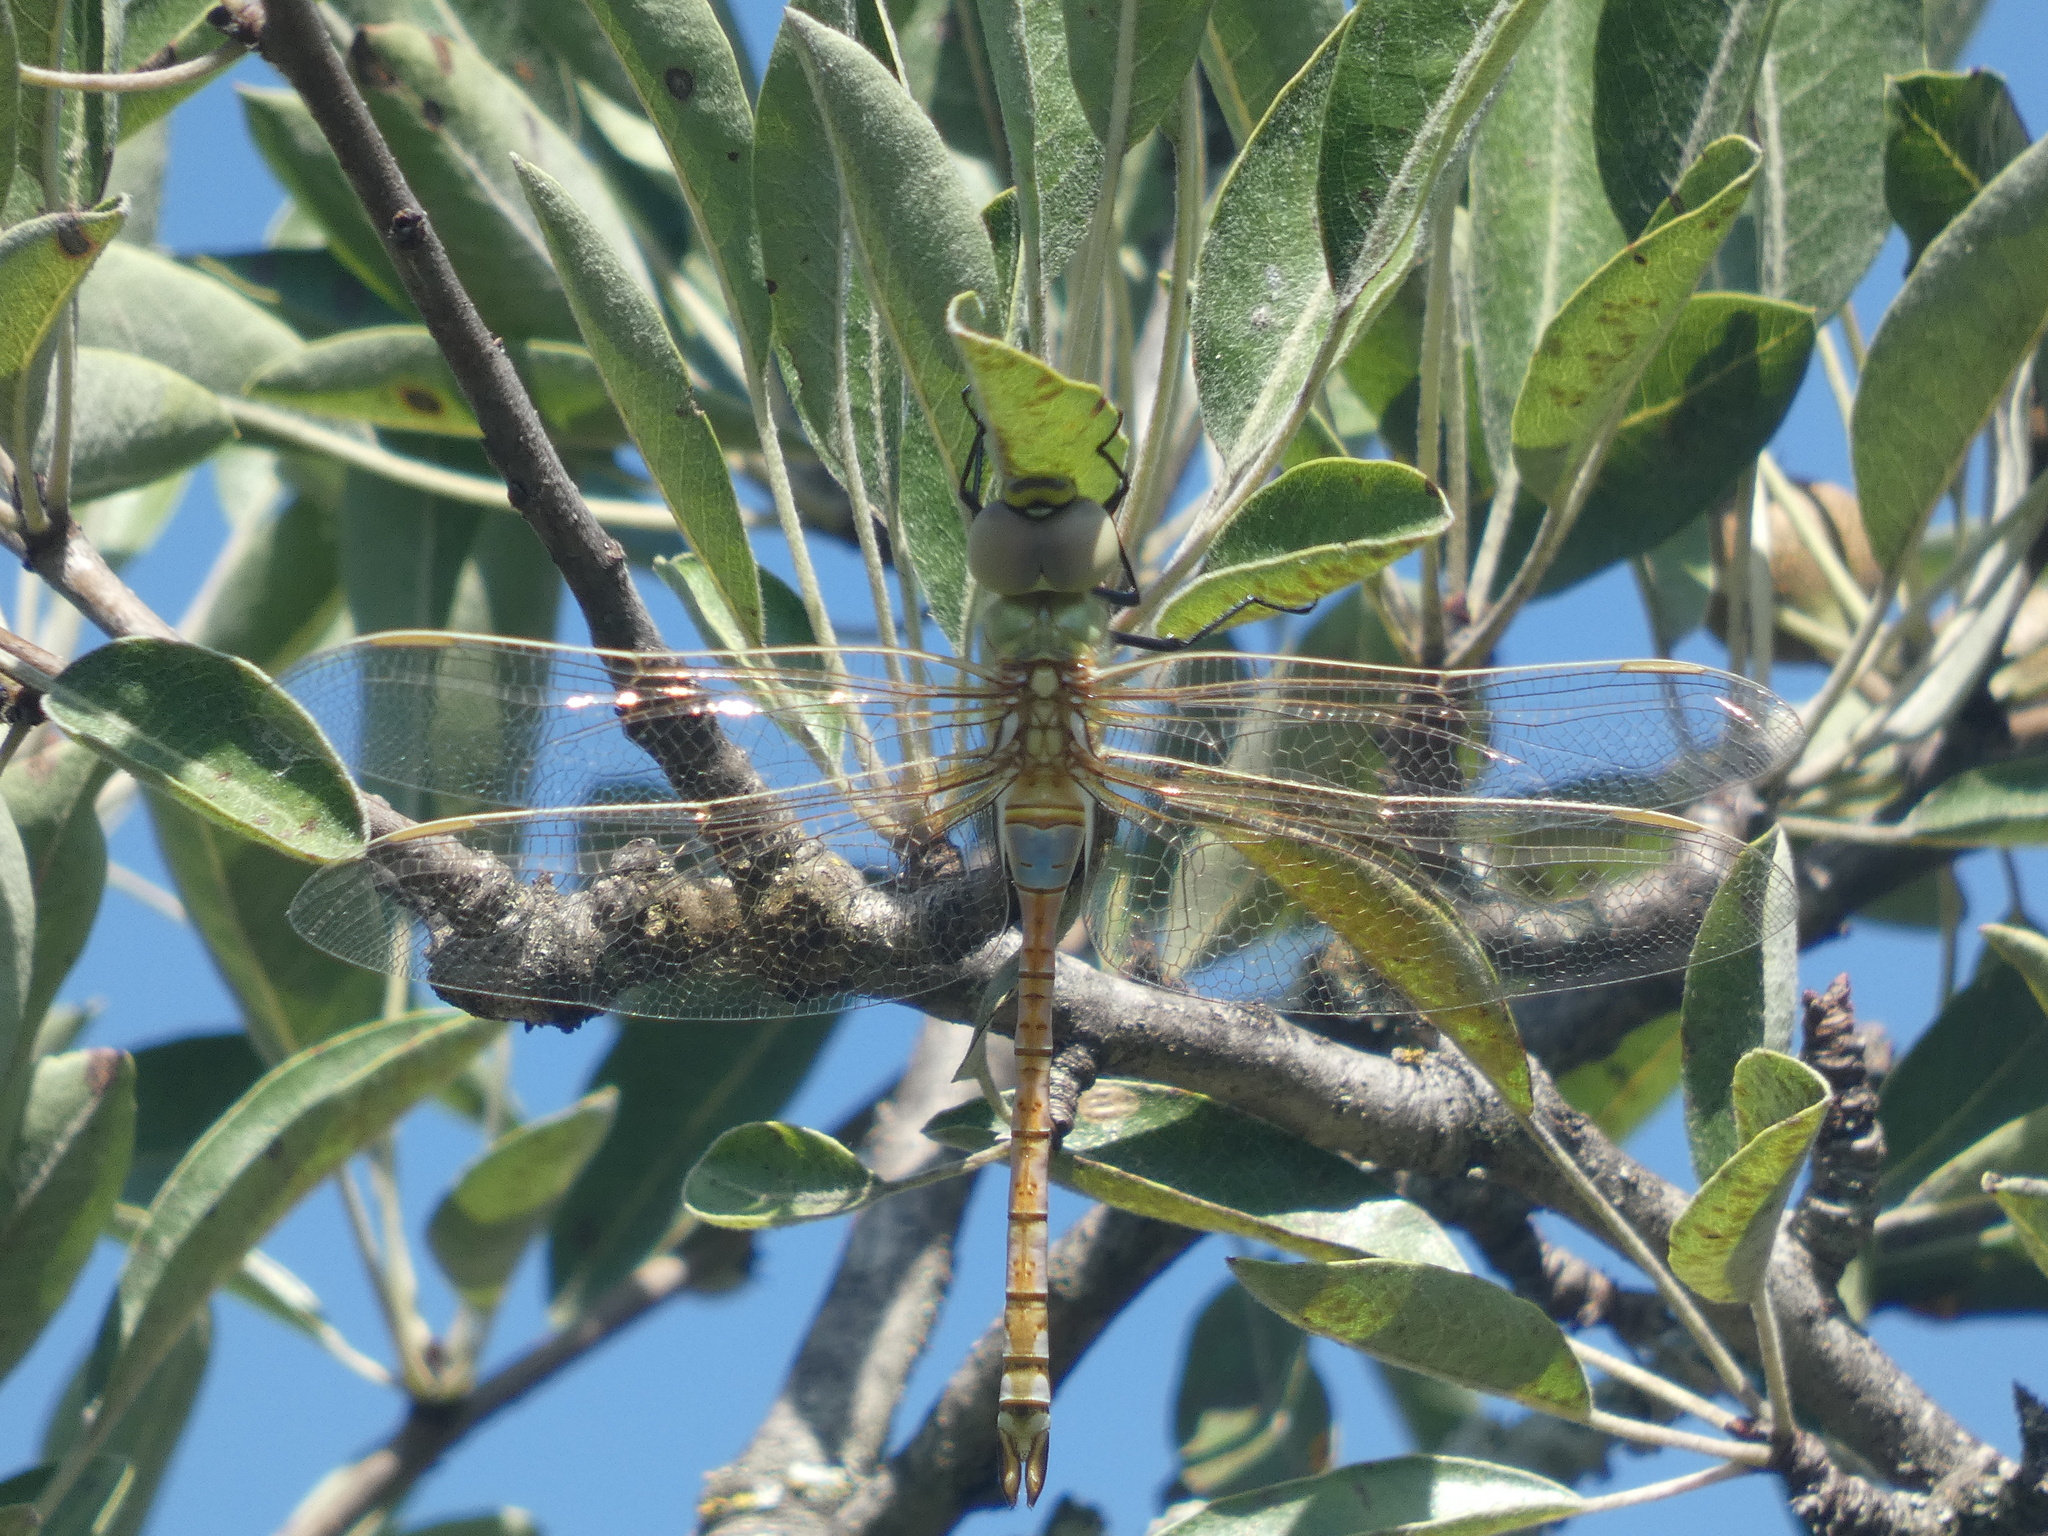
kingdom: Animalia
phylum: Arthropoda
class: Insecta
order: Odonata
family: Aeshnidae
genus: Anax
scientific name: Anax ephippiger
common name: Vagrant emperor
